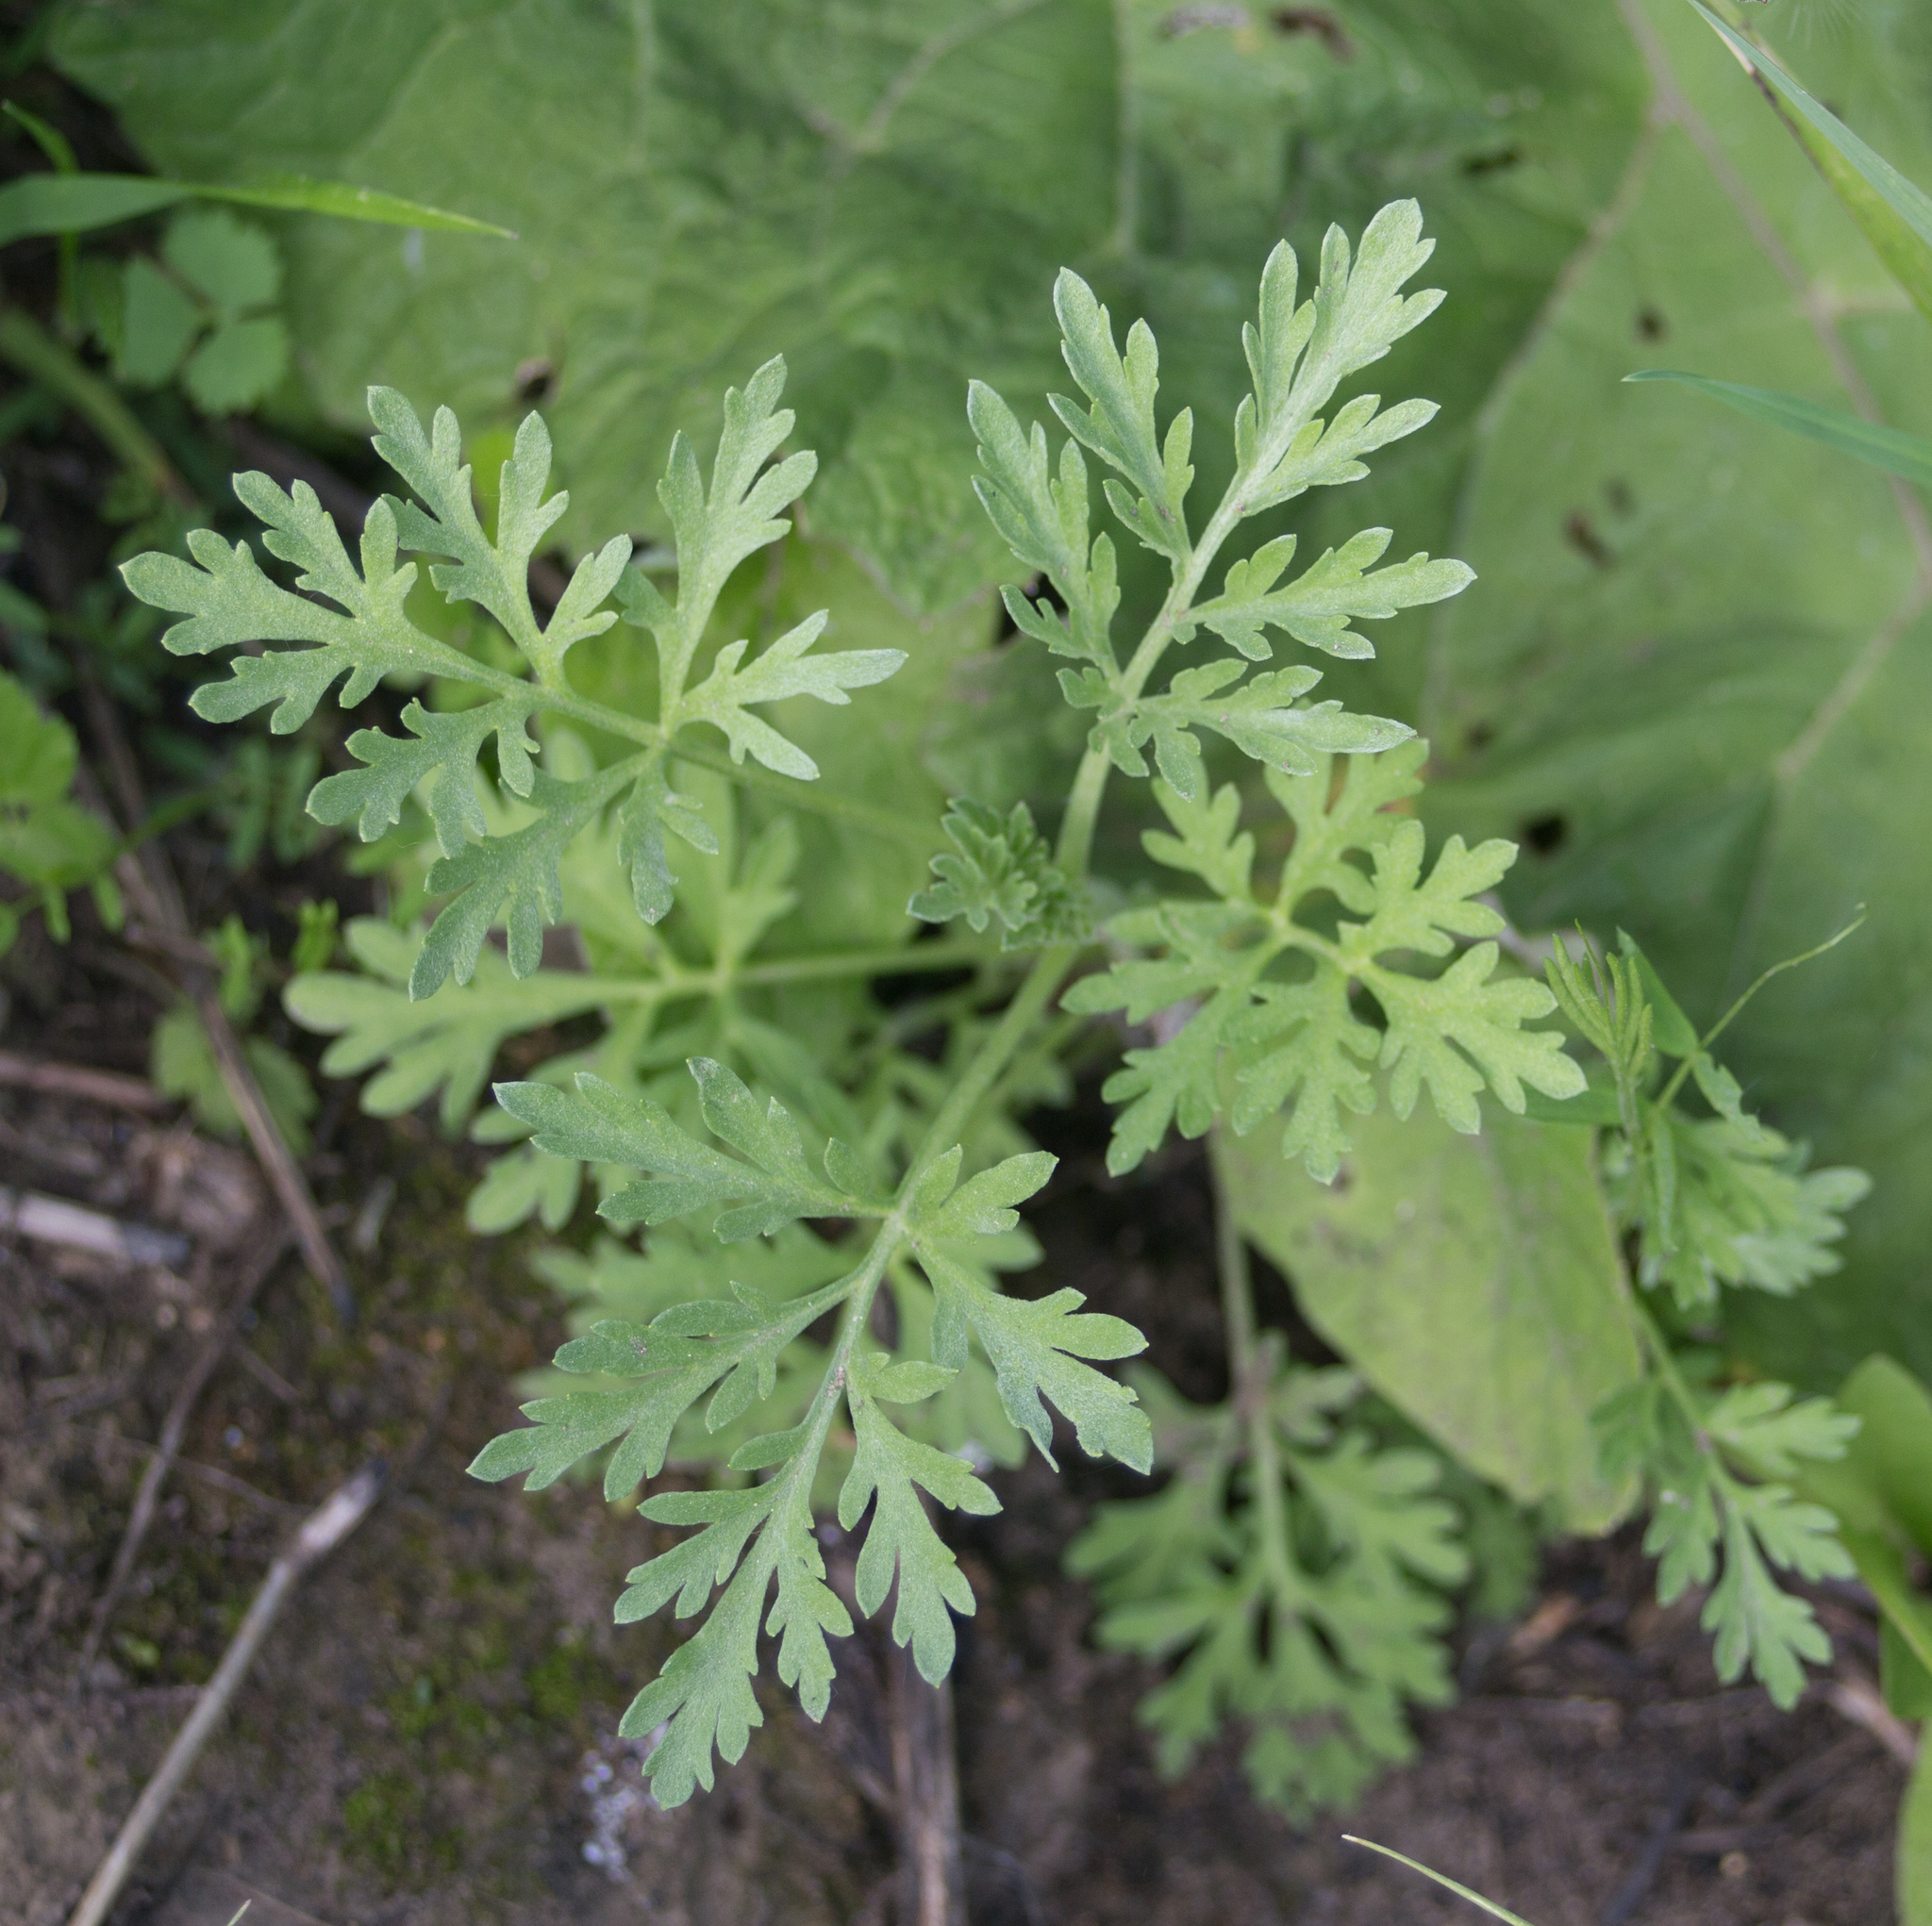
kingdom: Plantae
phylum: Tracheophyta
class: Magnoliopsida
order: Asterales
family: Asteraceae
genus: Artemisia
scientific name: Artemisia absinthium
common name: Wormwood
